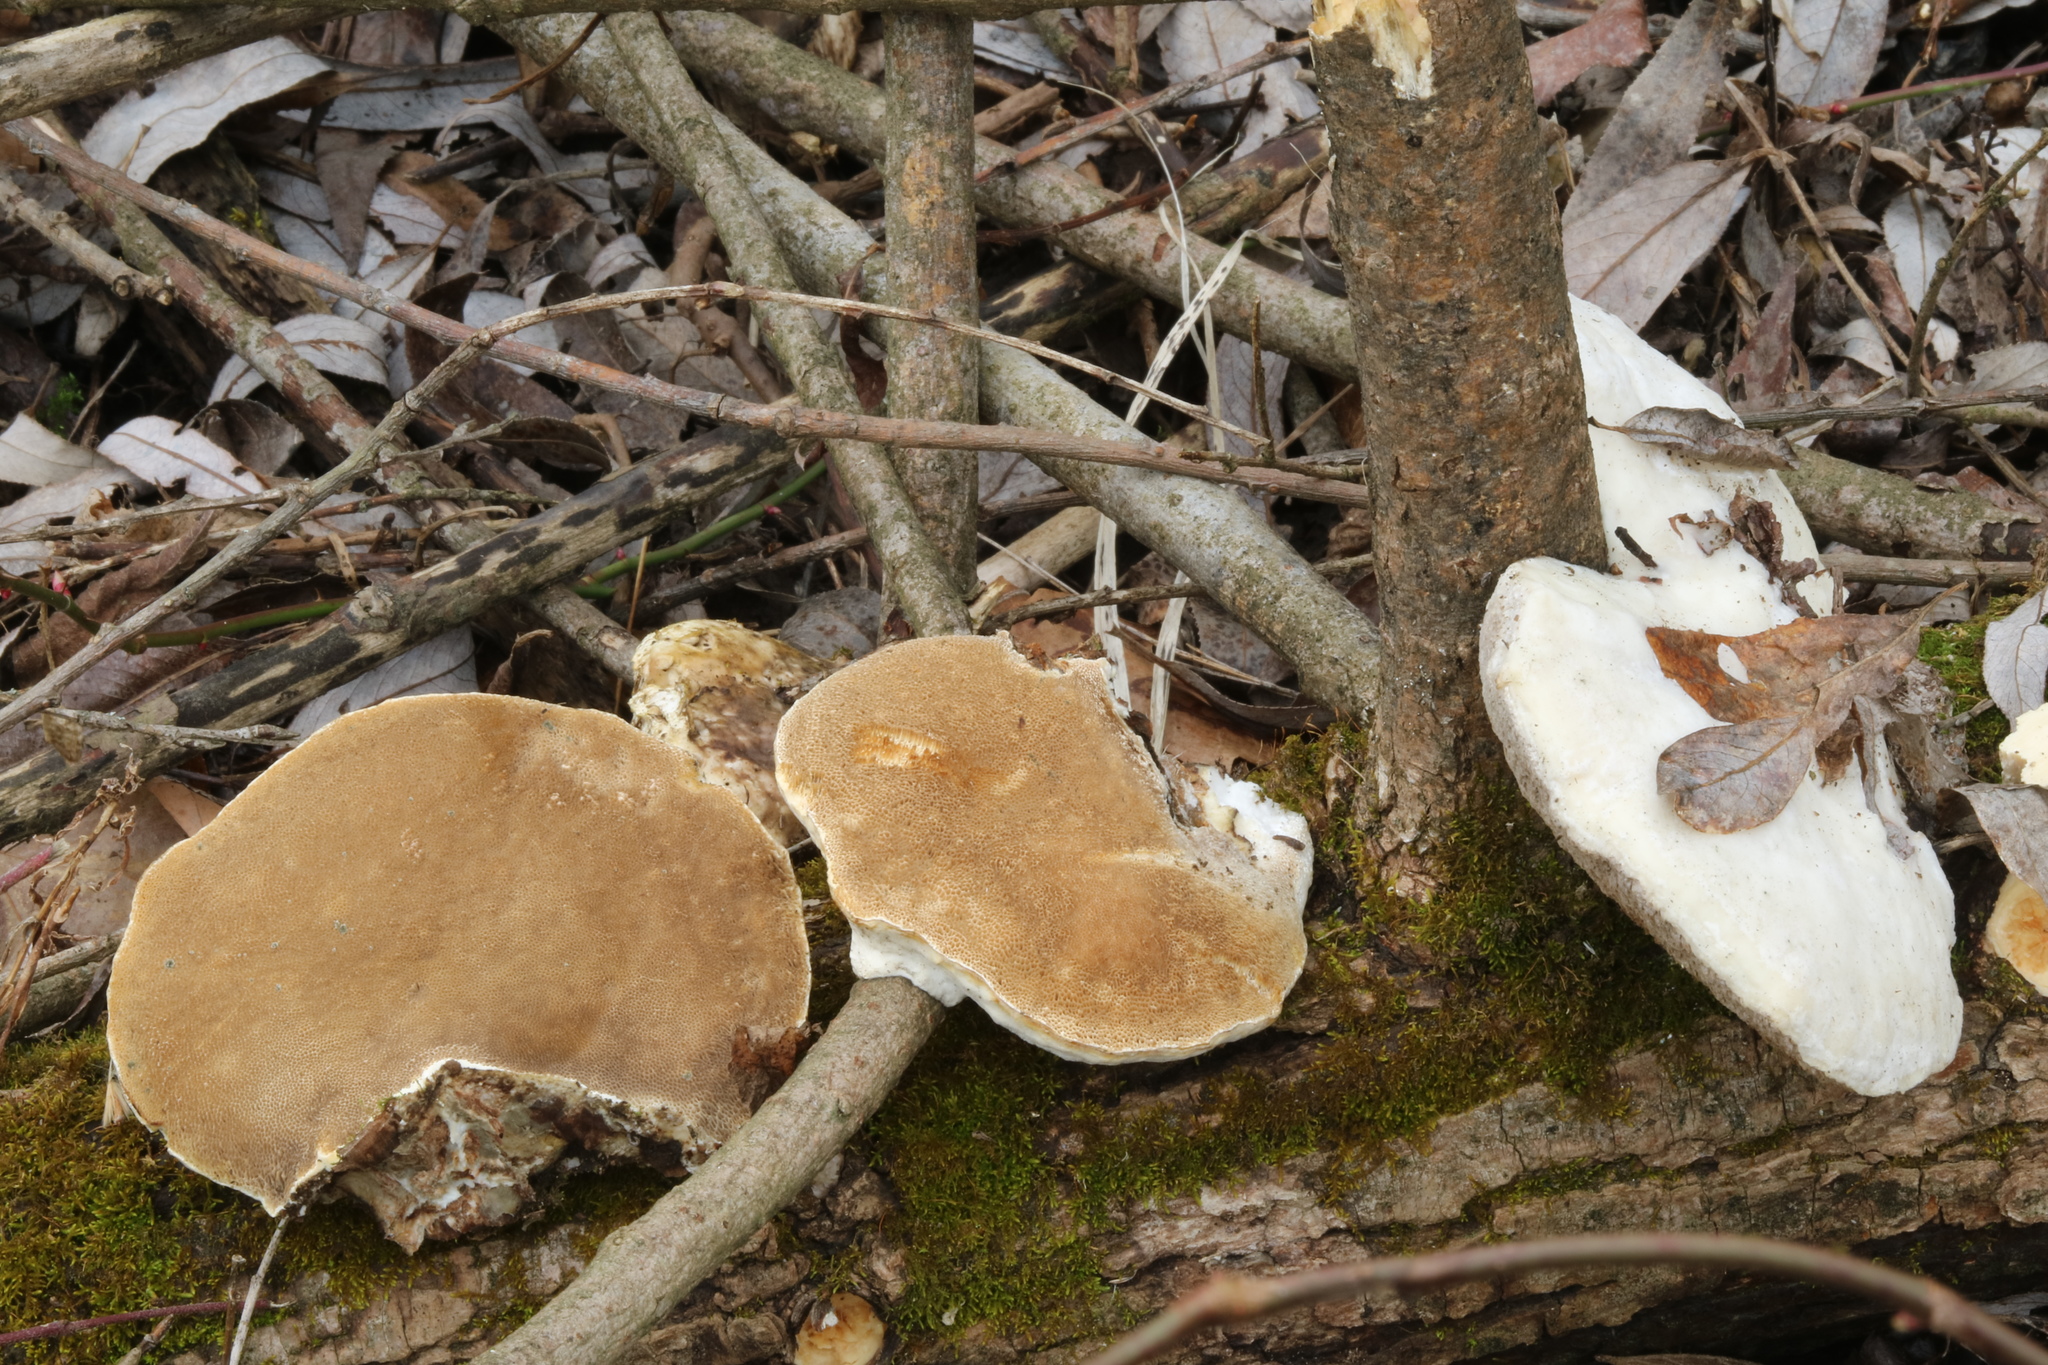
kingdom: Fungi
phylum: Basidiomycota
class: Agaricomycetes
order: Polyporales
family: Polyporaceae
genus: Trametes
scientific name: Trametes suaveolens
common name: Fragrant bracket
